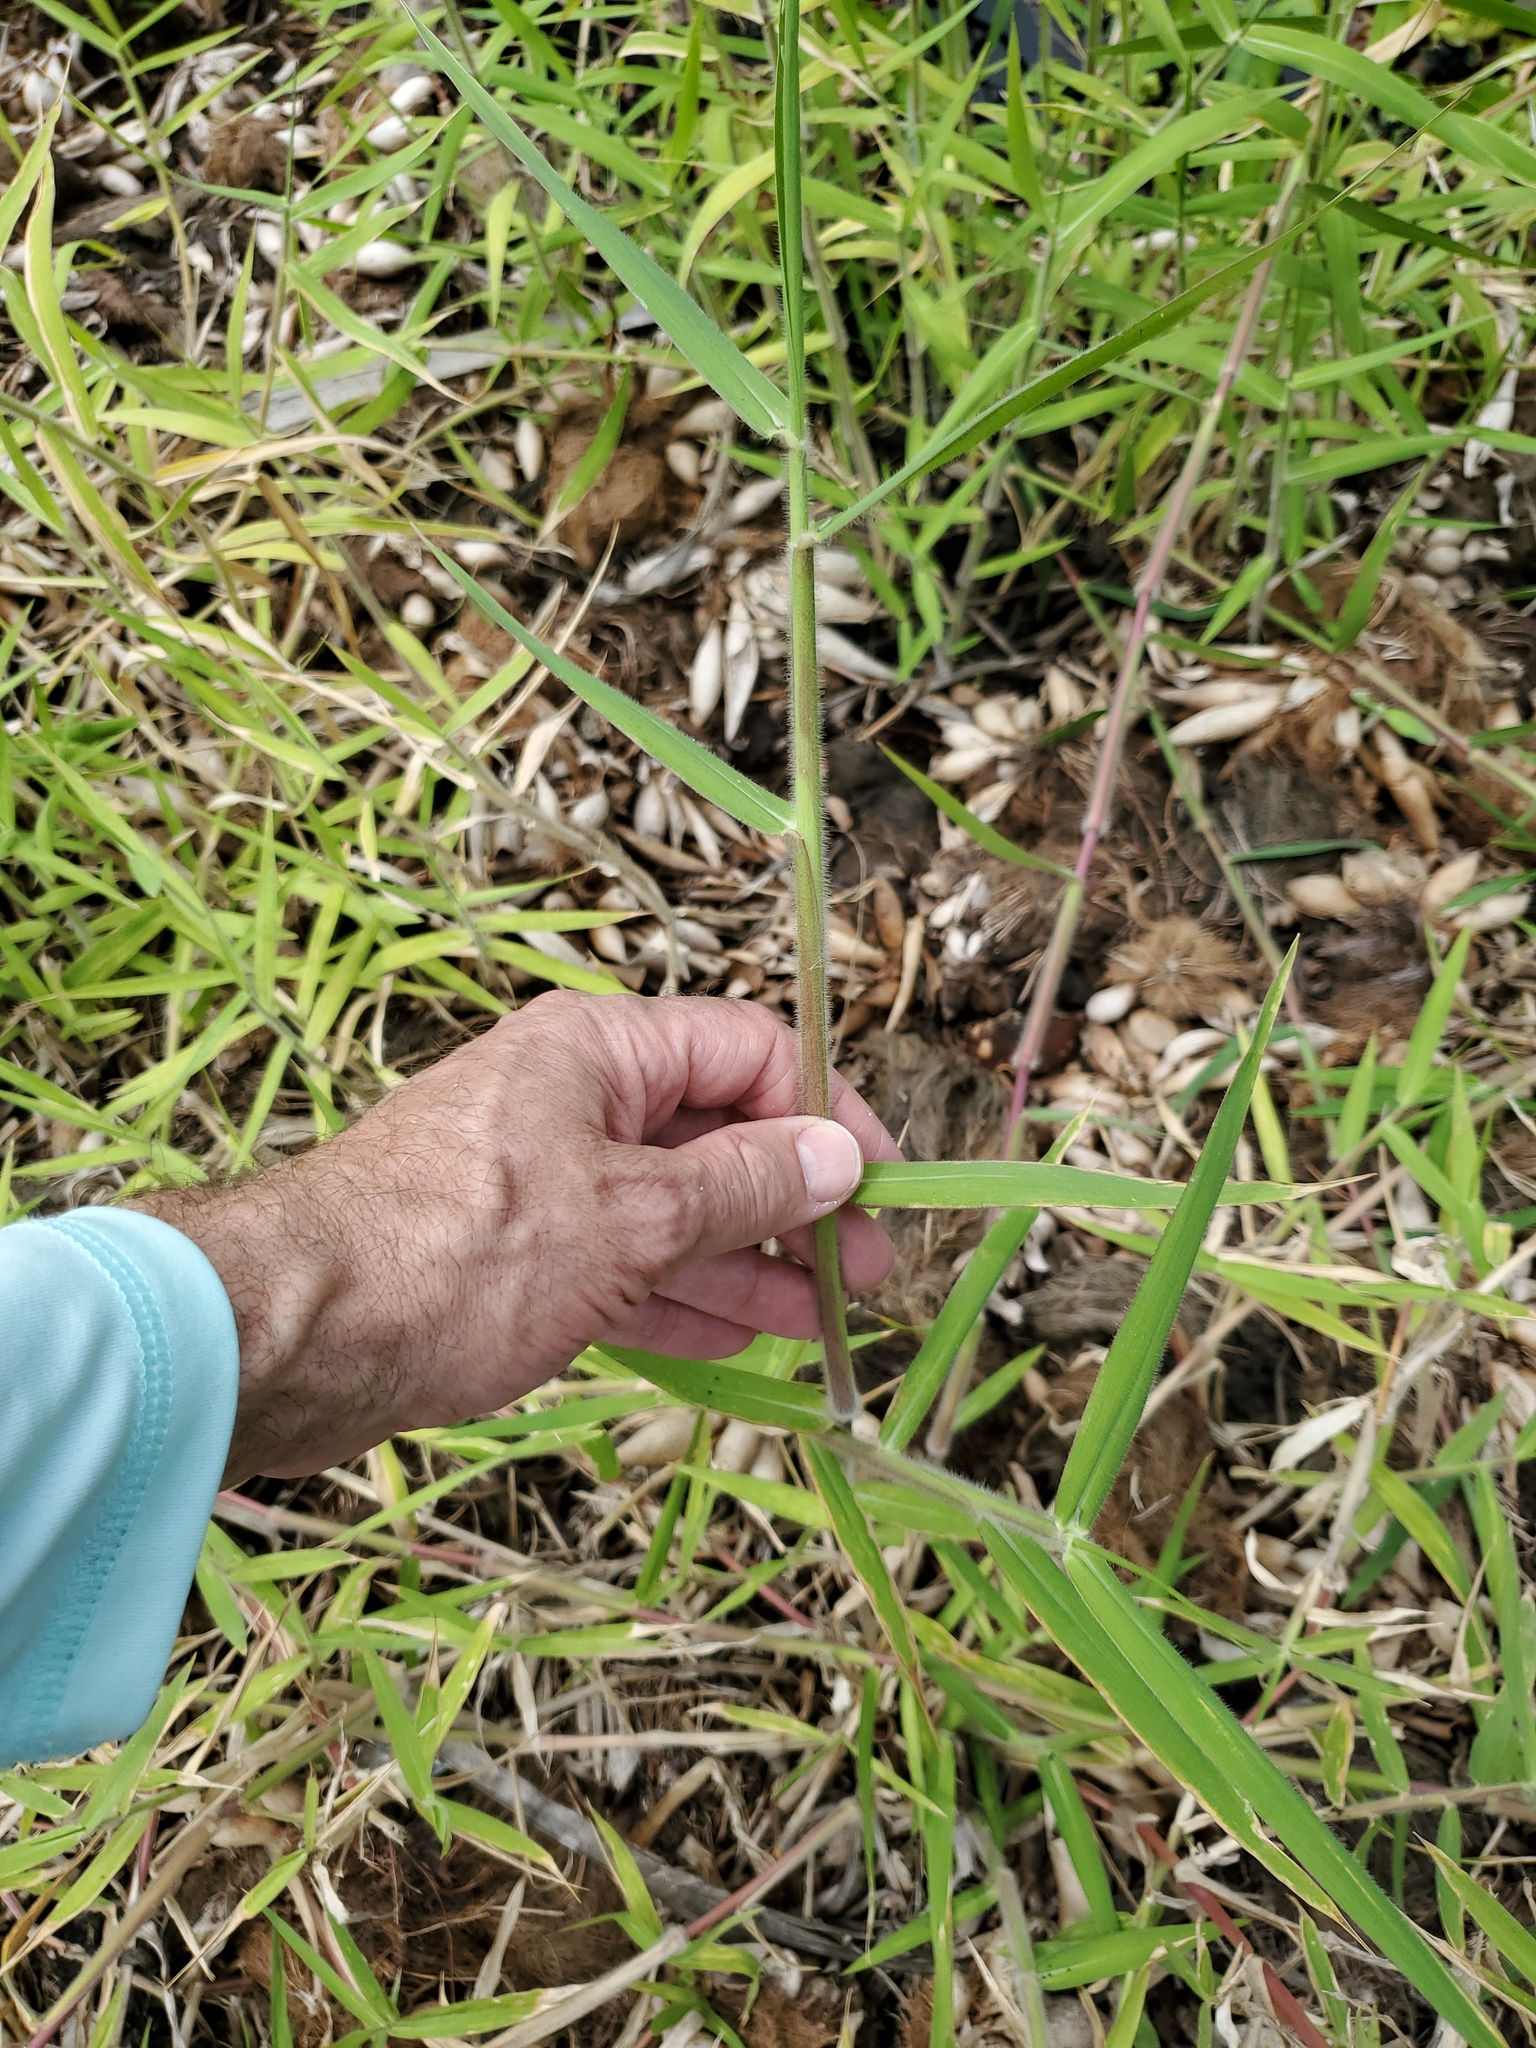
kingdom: Plantae
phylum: Tracheophyta
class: Liliopsida
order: Poales
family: Poaceae
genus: Urochloa
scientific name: Urochloa mutica
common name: Para grass
